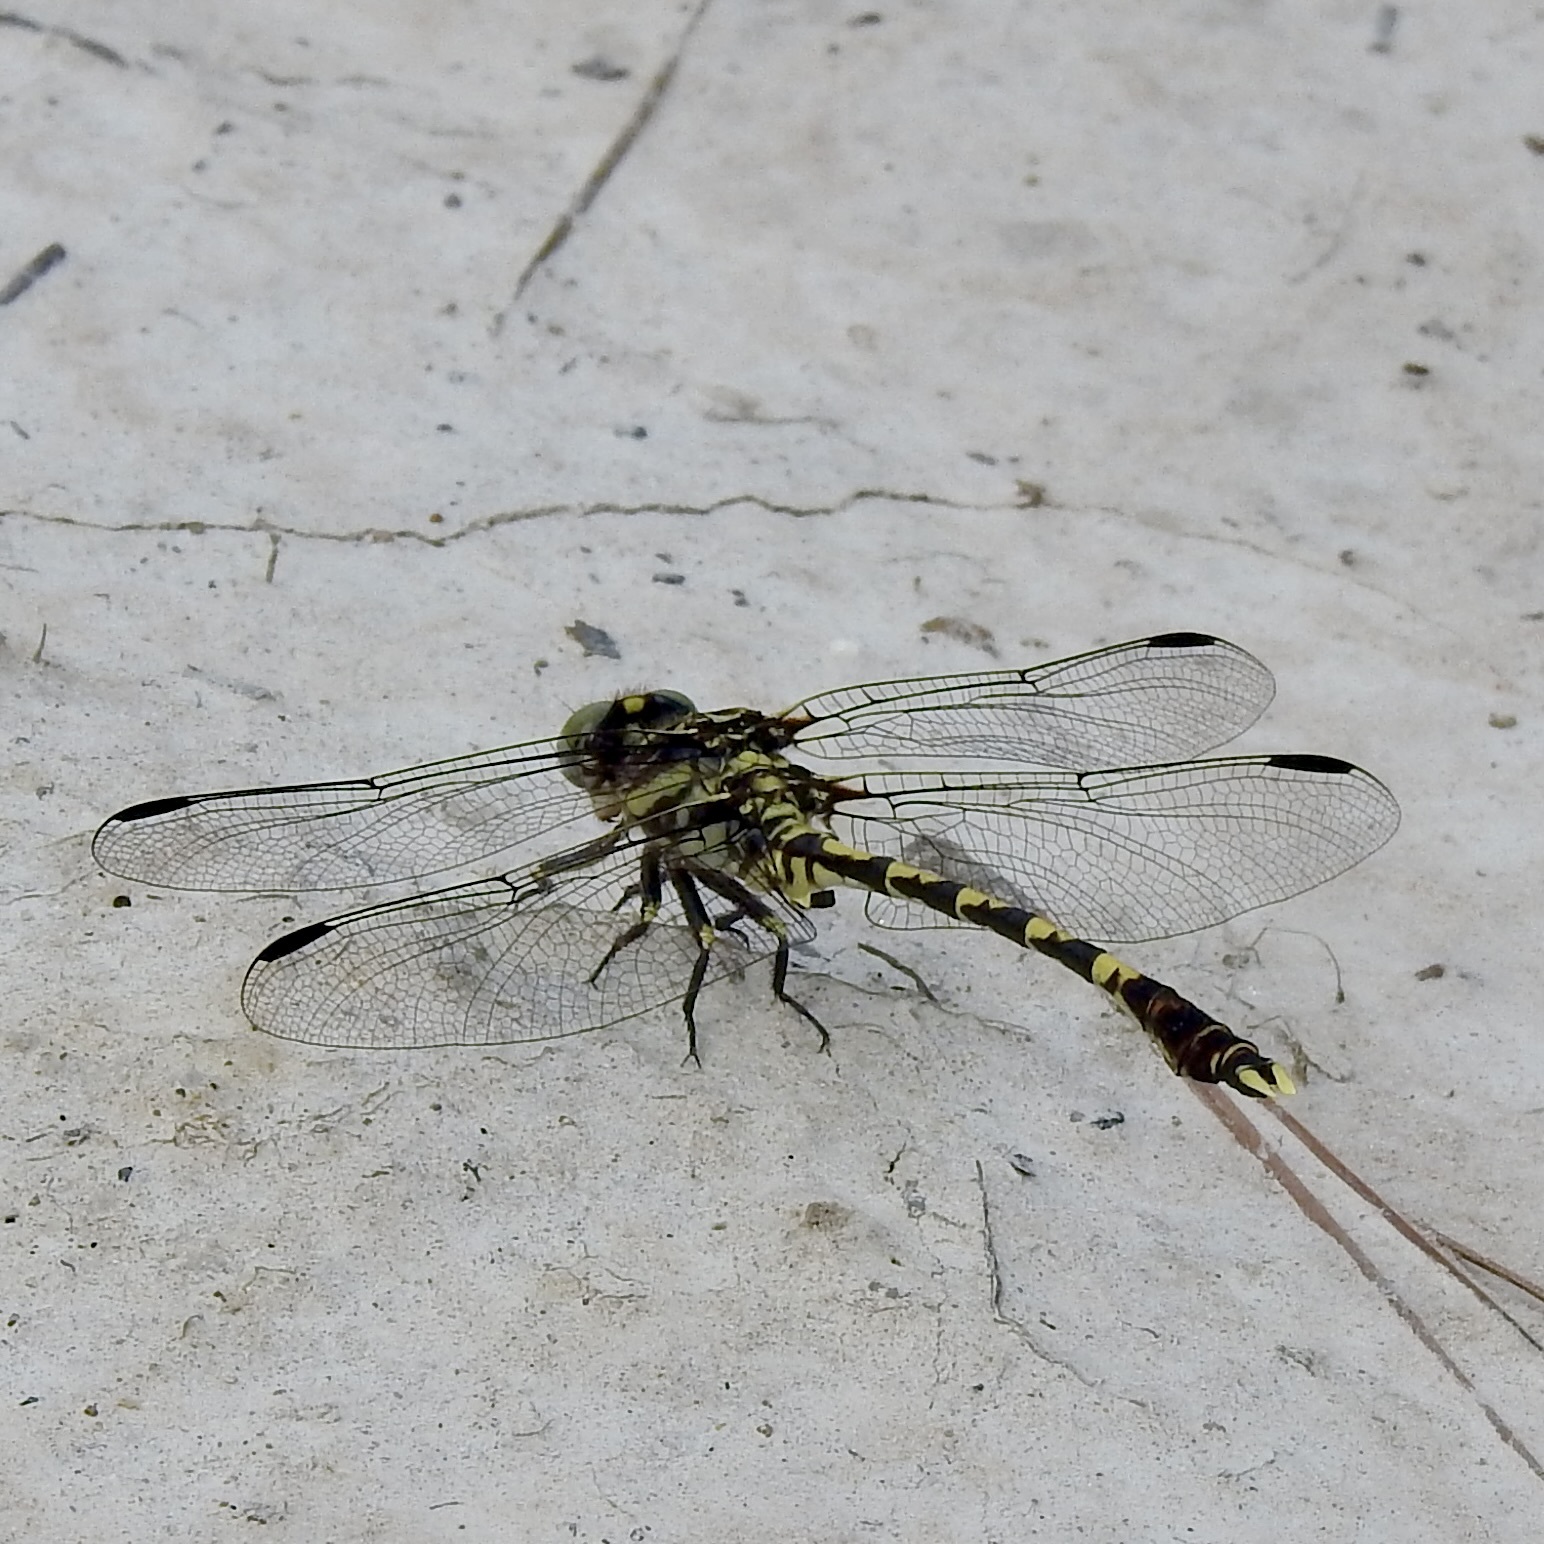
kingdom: Animalia
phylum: Arthropoda
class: Insecta
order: Odonata
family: Gomphidae
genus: Progomphus
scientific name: Progomphus obscurus
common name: Common sanddragon
